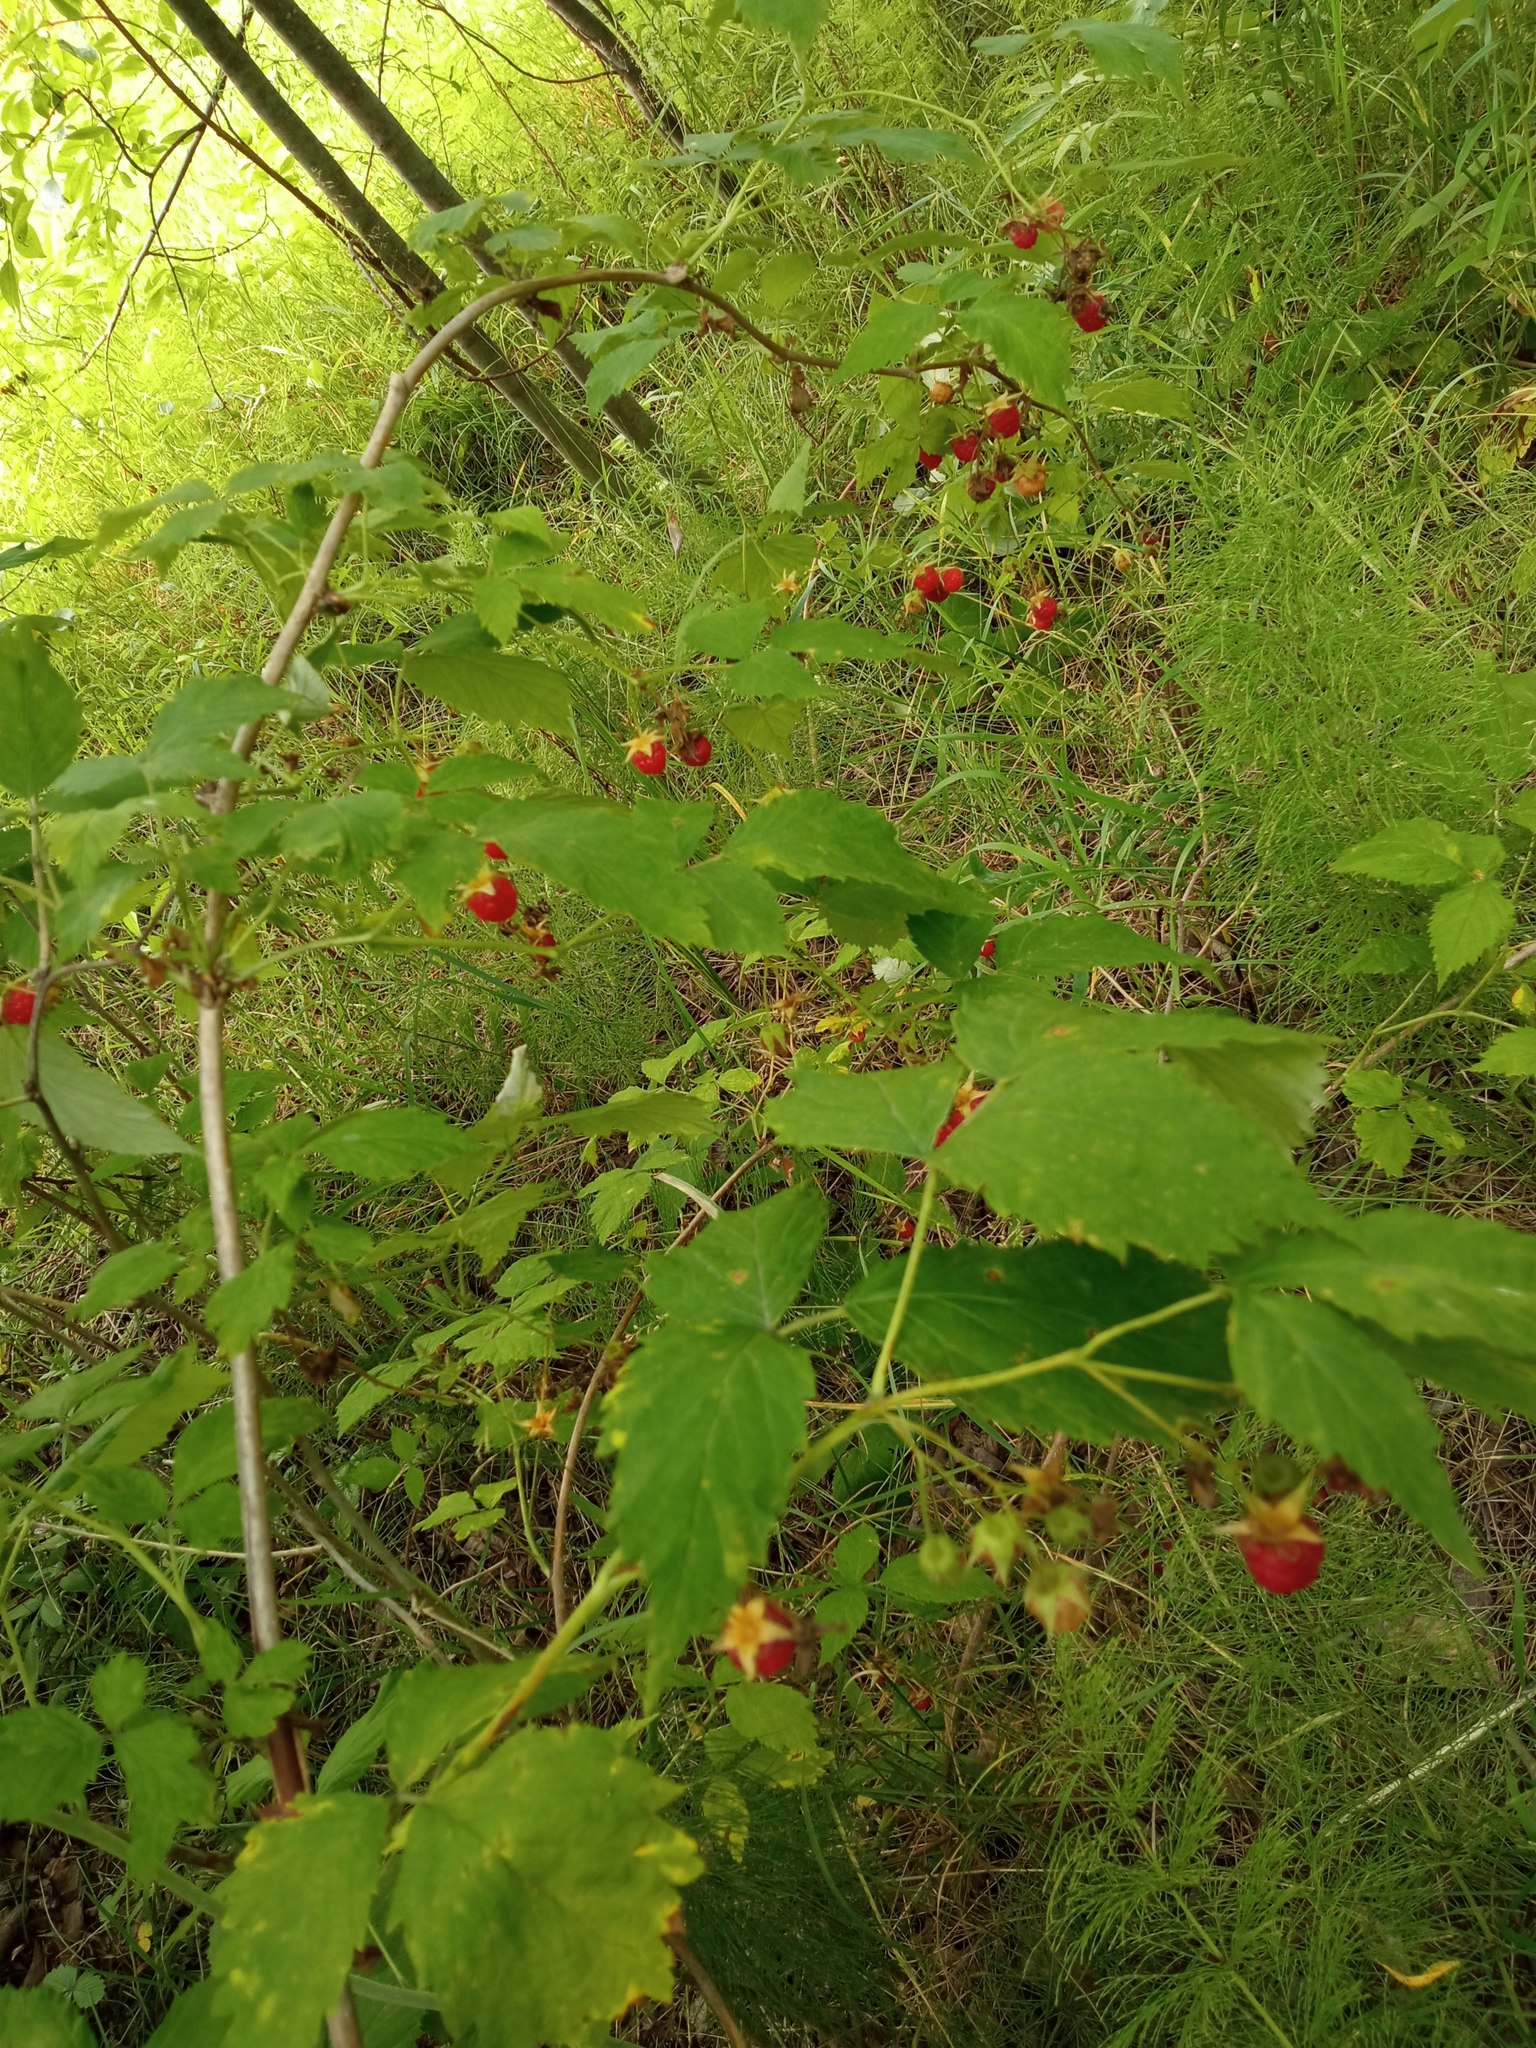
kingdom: Plantae
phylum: Tracheophyta
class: Magnoliopsida
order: Rosales
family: Rosaceae
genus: Rubus
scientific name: Rubus idaeus
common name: Raspberry
